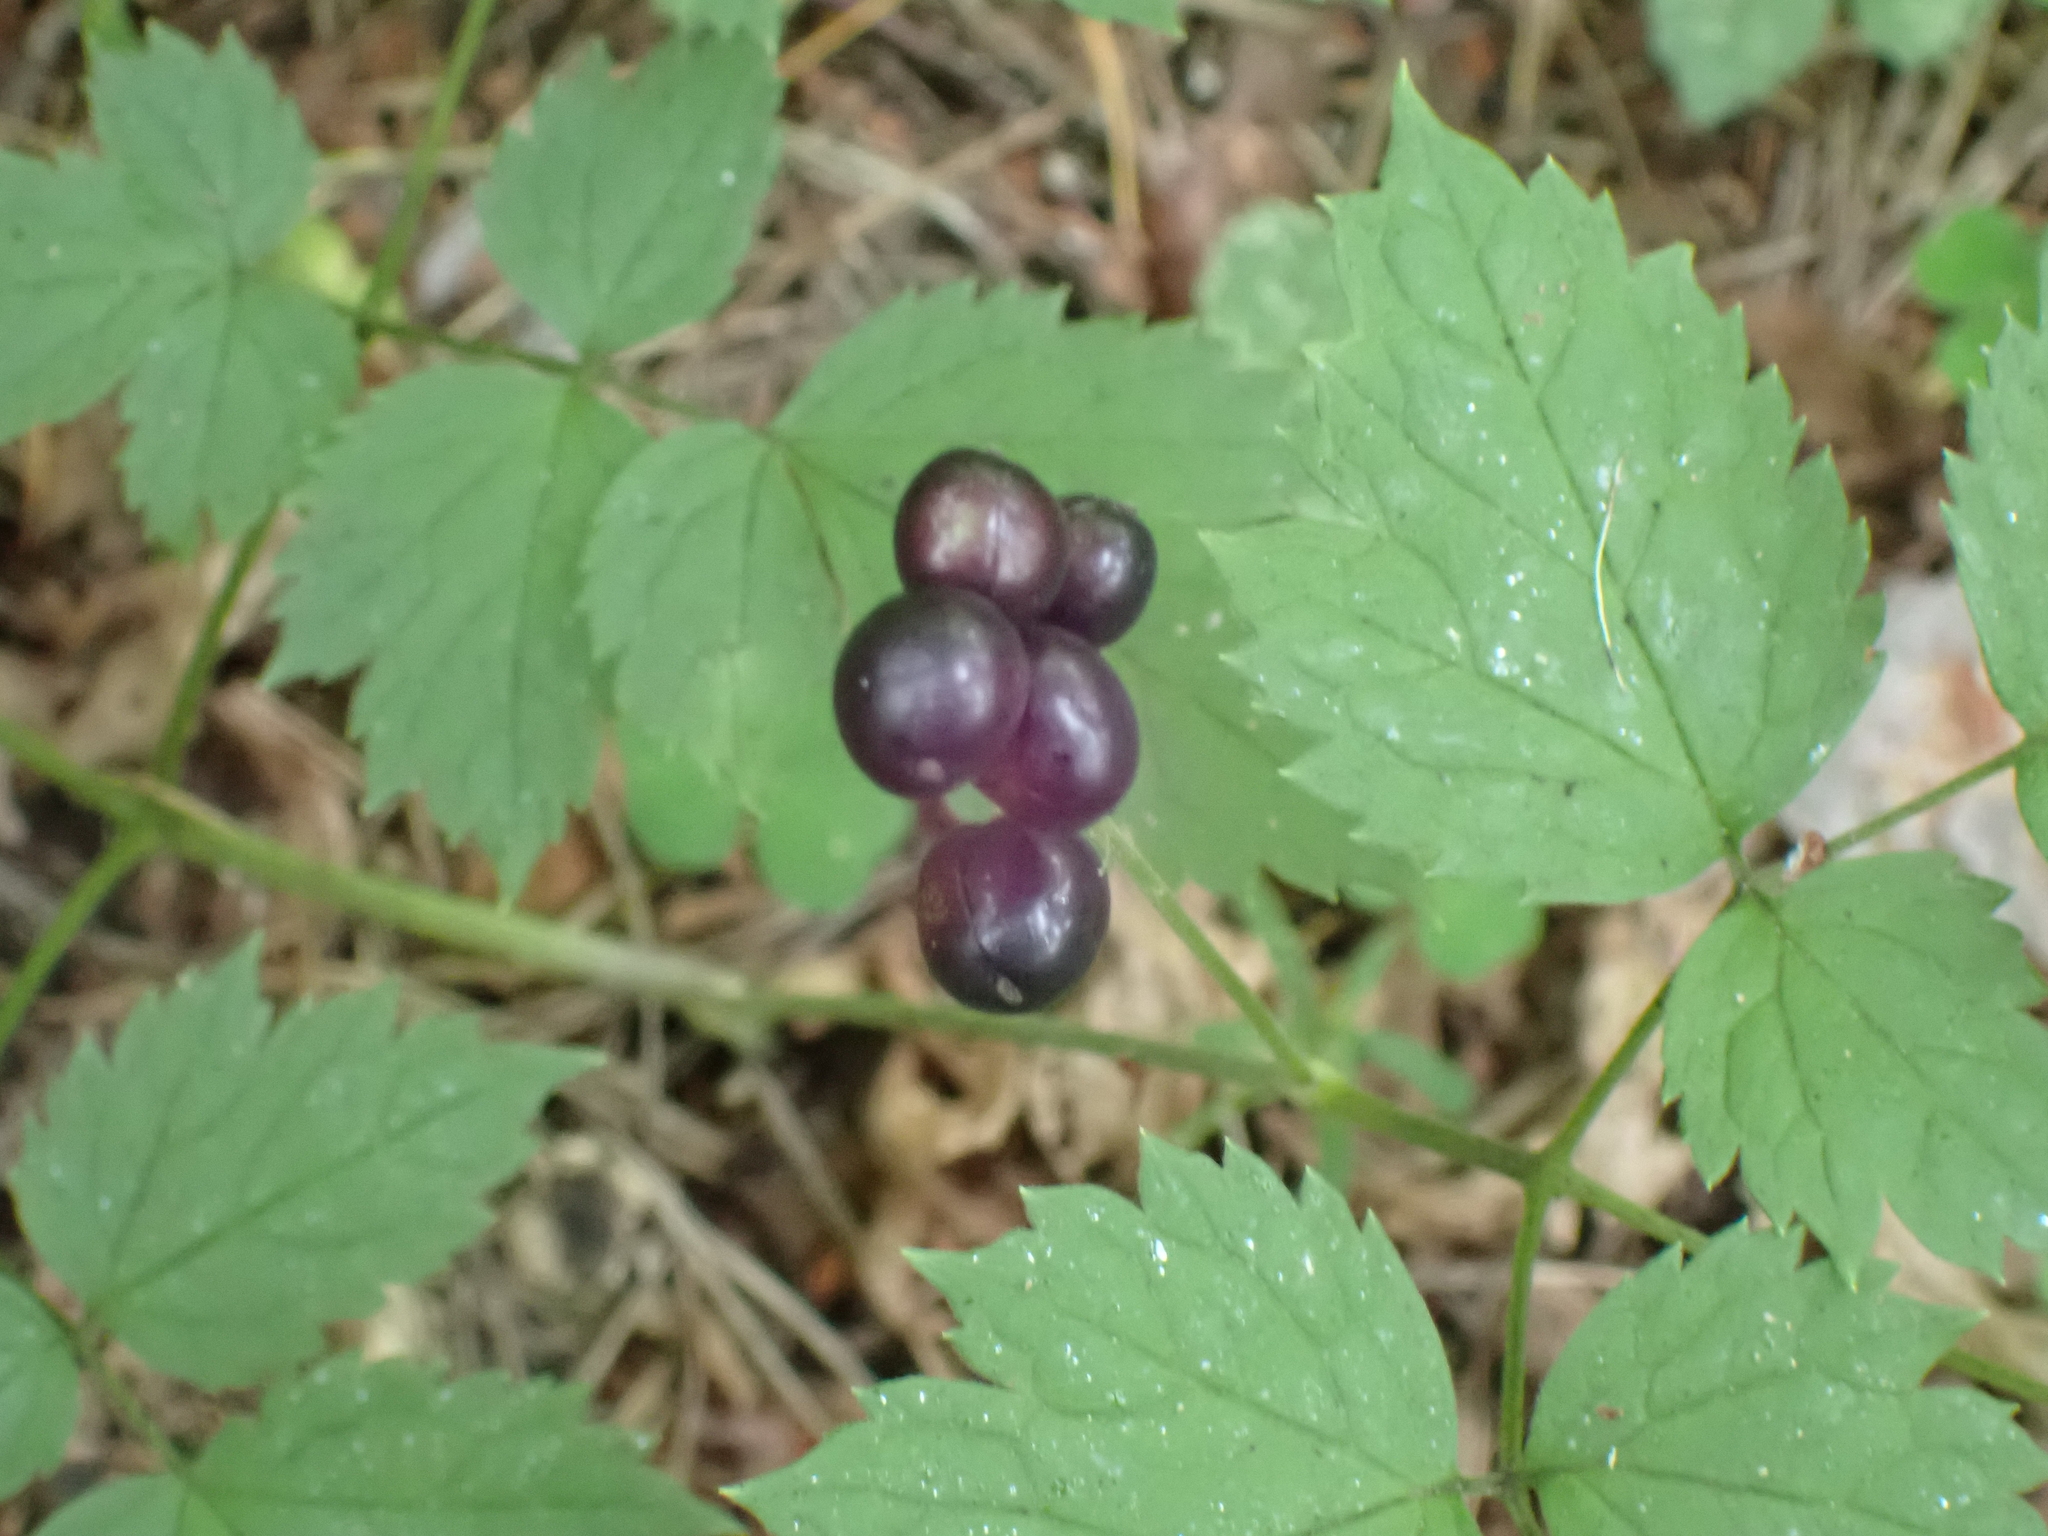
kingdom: Plantae
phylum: Tracheophyta
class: Magnoliopsida
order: Ranunculales
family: Ranunculaceae
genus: Actaea
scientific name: Actaea spicata
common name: Baneberry
